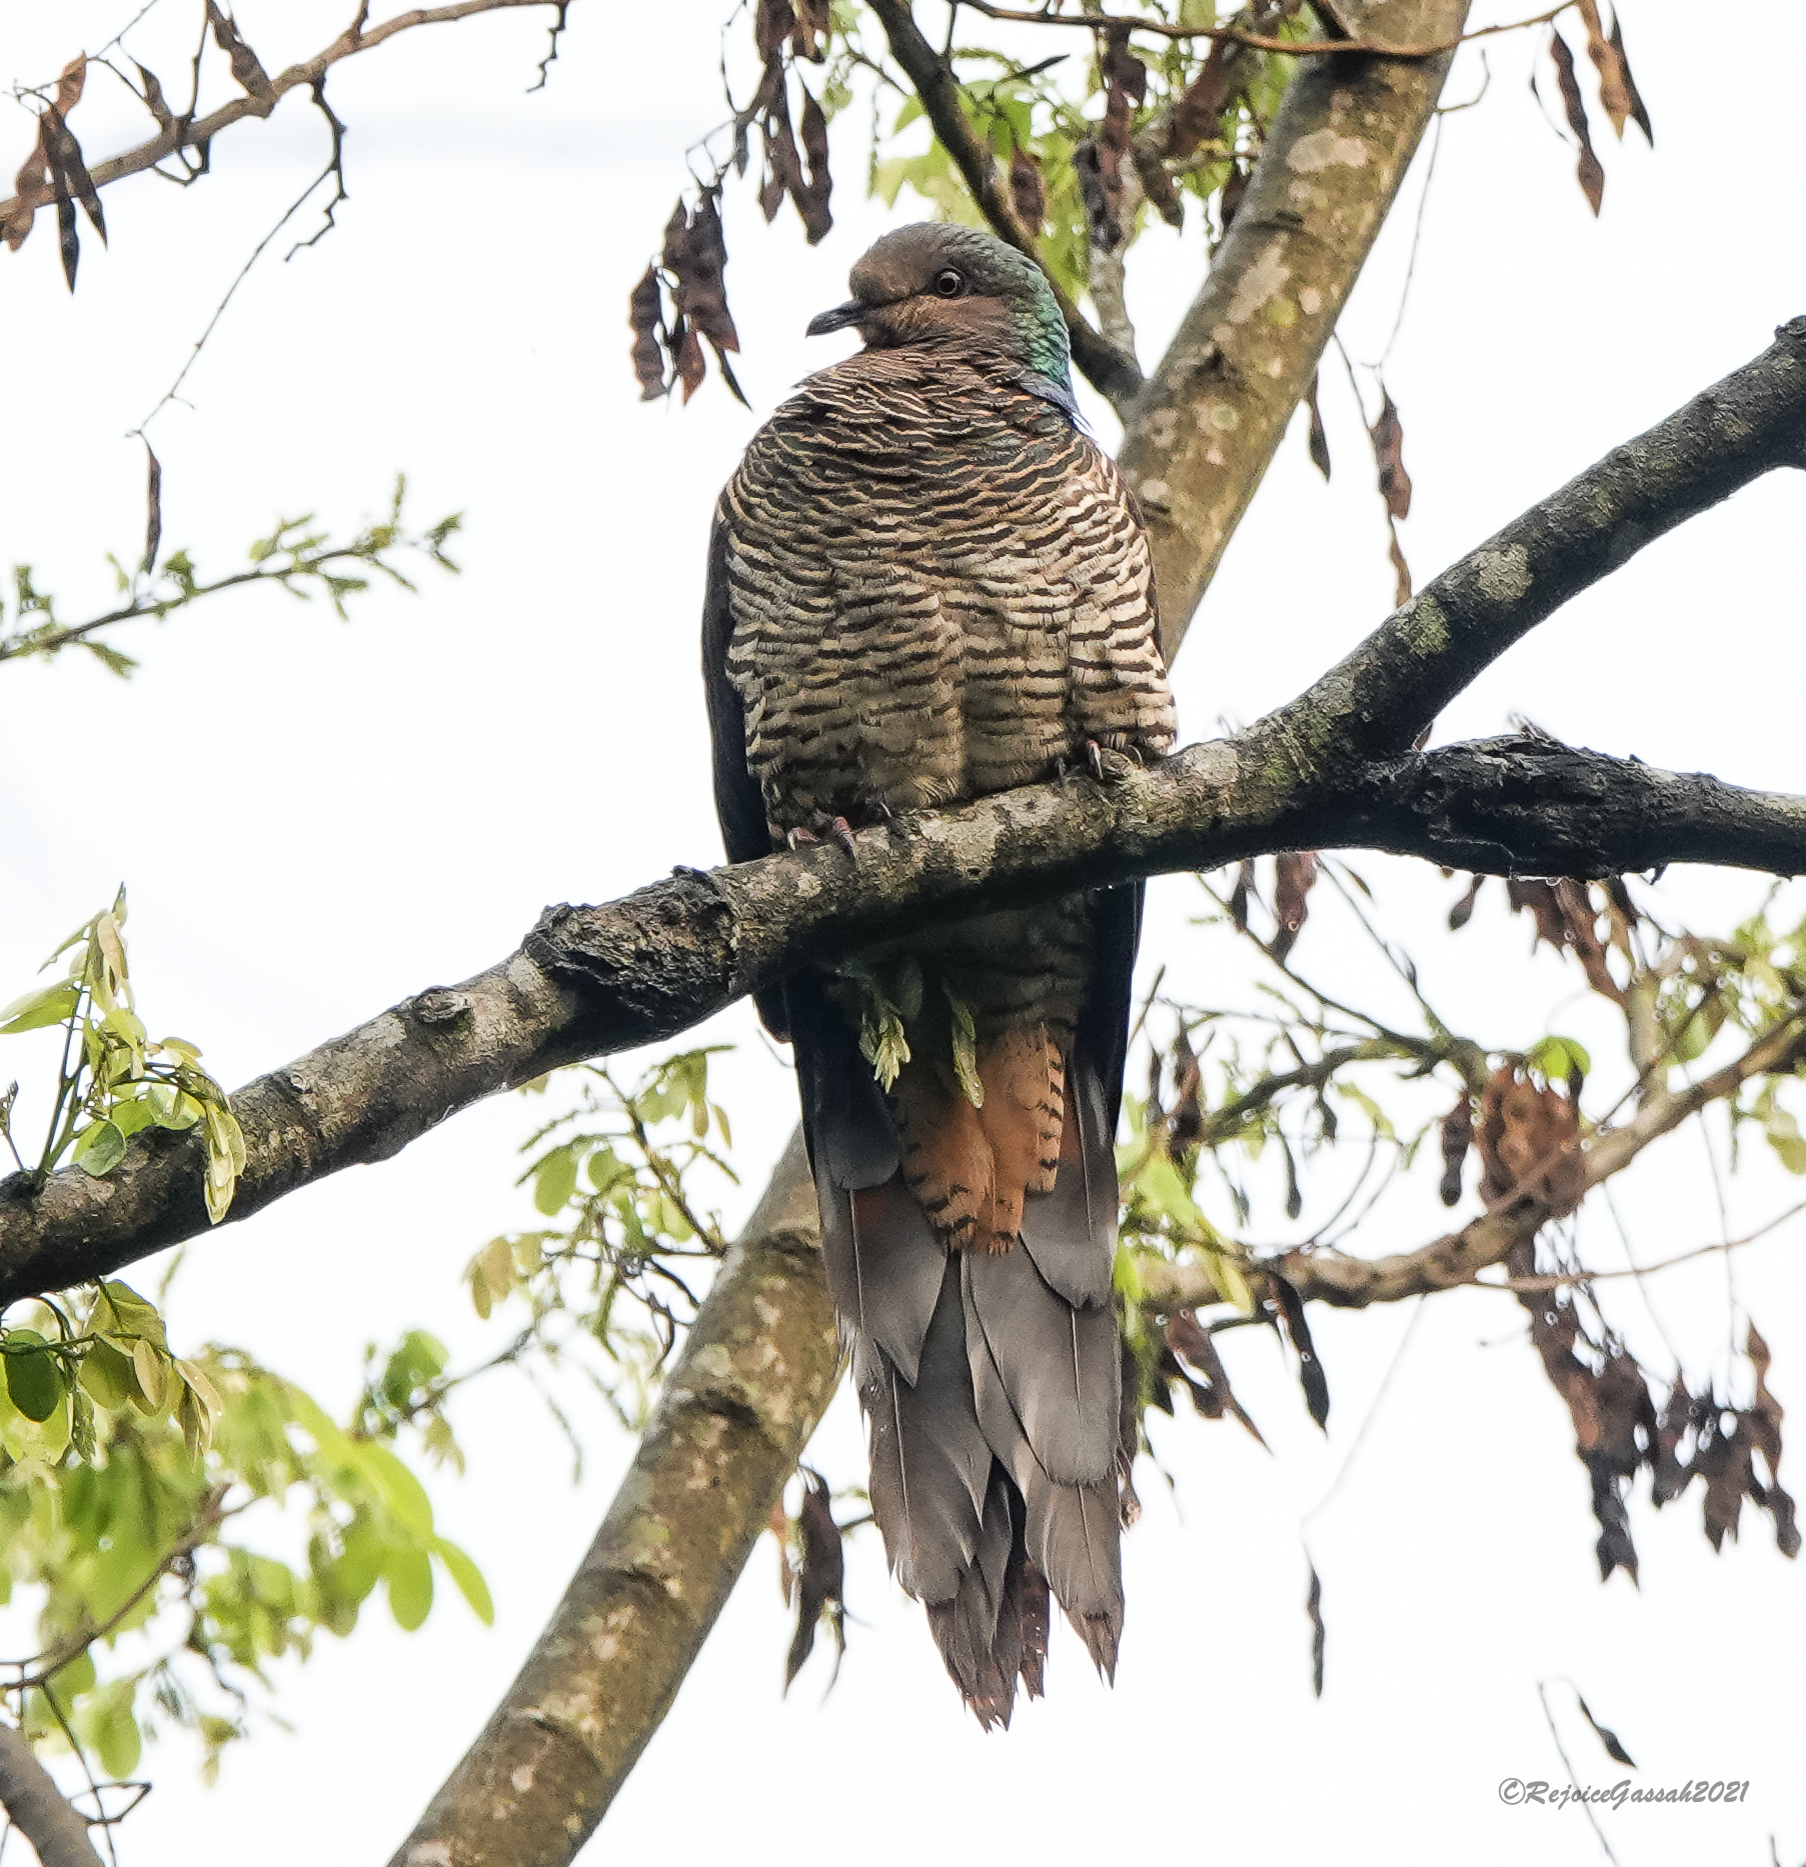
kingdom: Animalia
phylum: Chordata
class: Aves
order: Columbiformes
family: Columbidae
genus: Macropygia
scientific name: Macropygia unchall
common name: Barred cuckoo-dove
